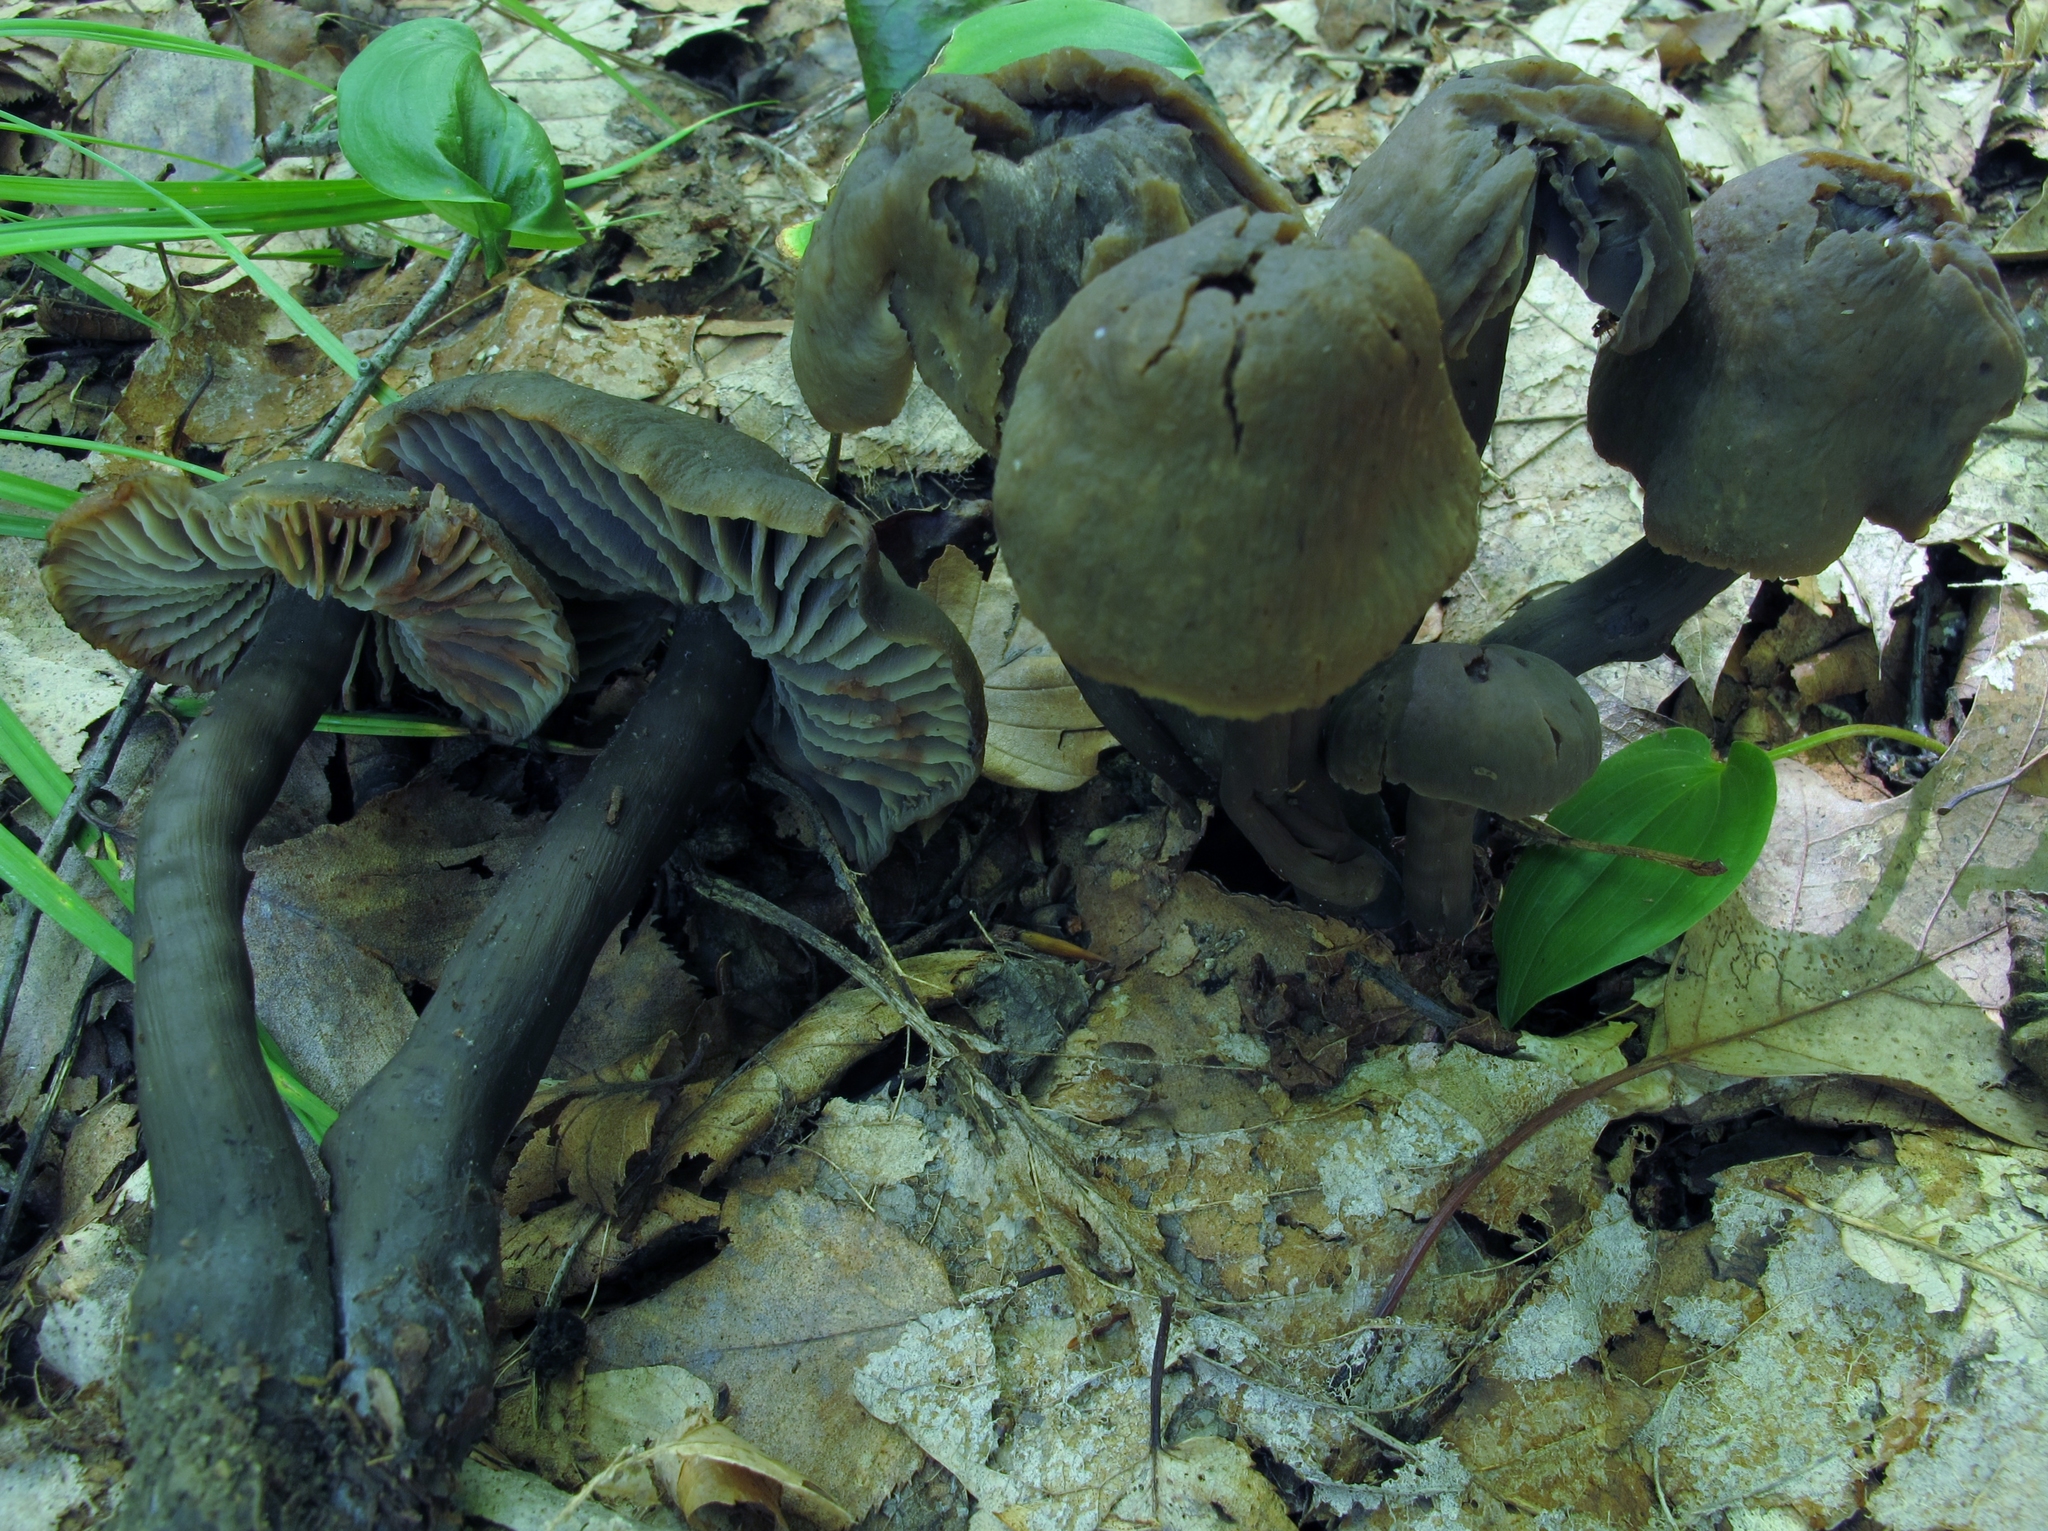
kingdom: Fungi
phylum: Basidiomycota
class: Agaricomycetes
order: Agaricales
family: Hygrophoraceae
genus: Neohygrocybe
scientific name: Neohygrocybe subovina
